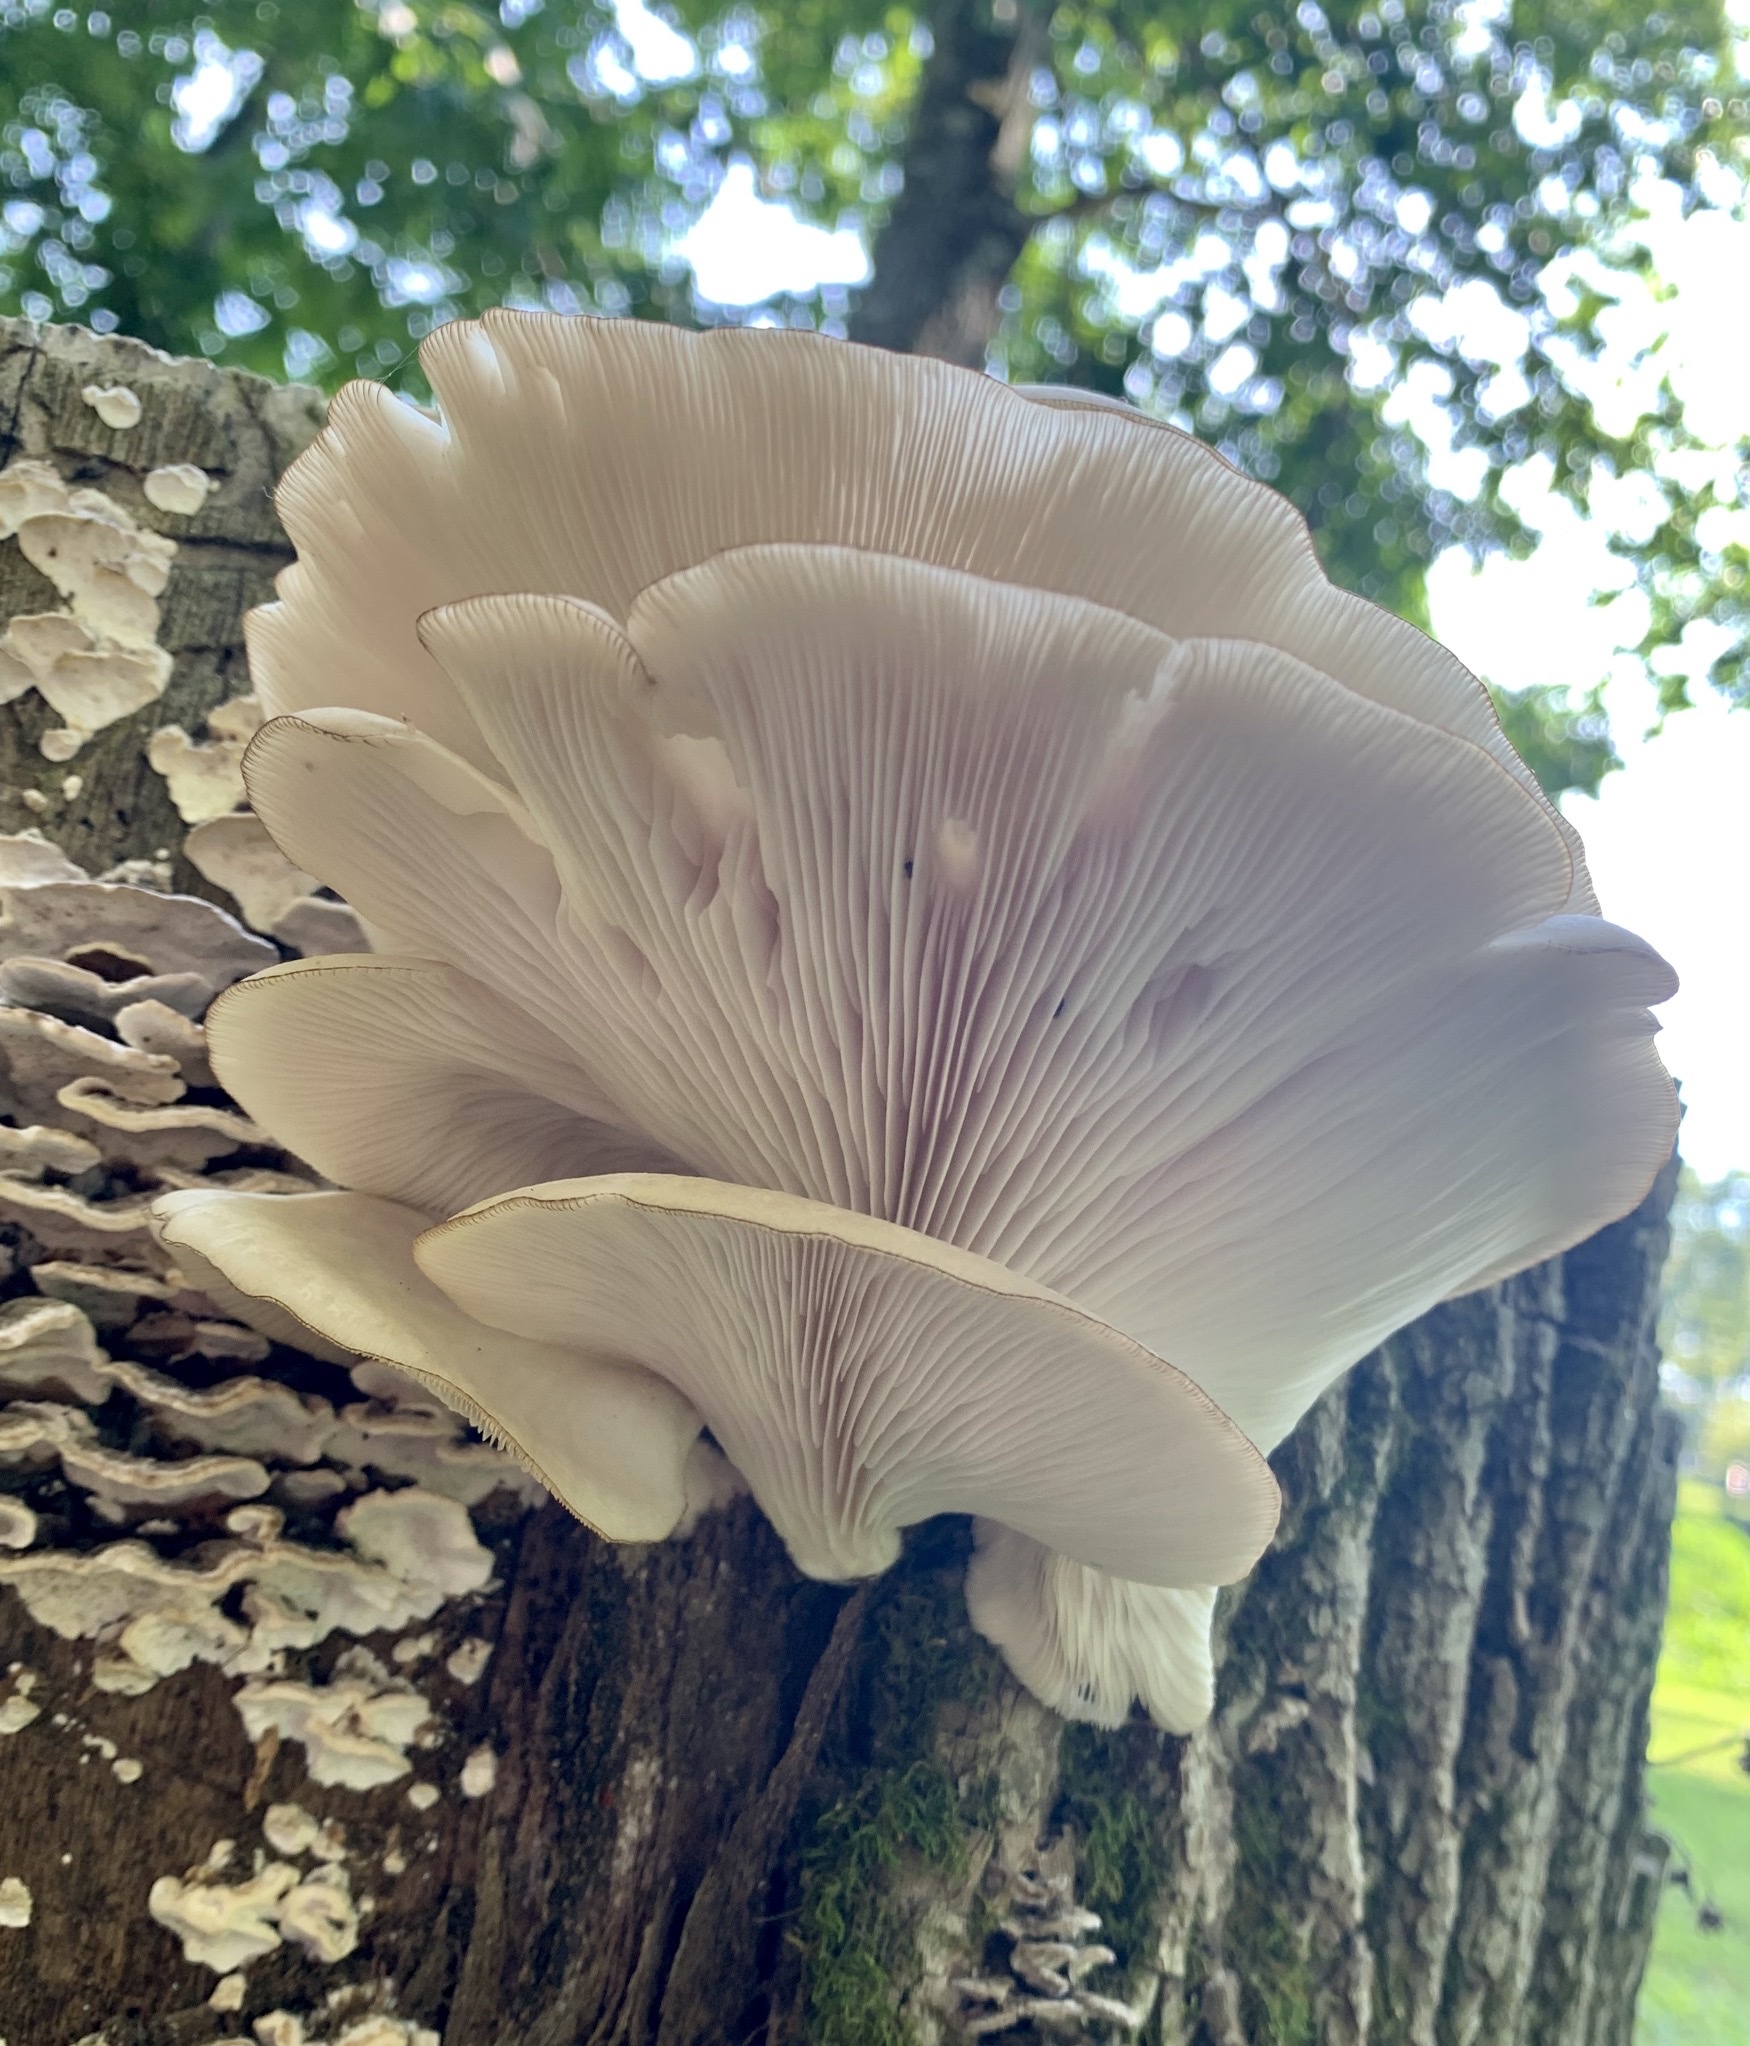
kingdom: Fungi
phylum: Basidiomycota
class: Agaricomycetes
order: Agaricales
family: Pleurotaceae
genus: Pleurotus
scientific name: Pleurotus ostreatus
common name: Oyster mushroom
